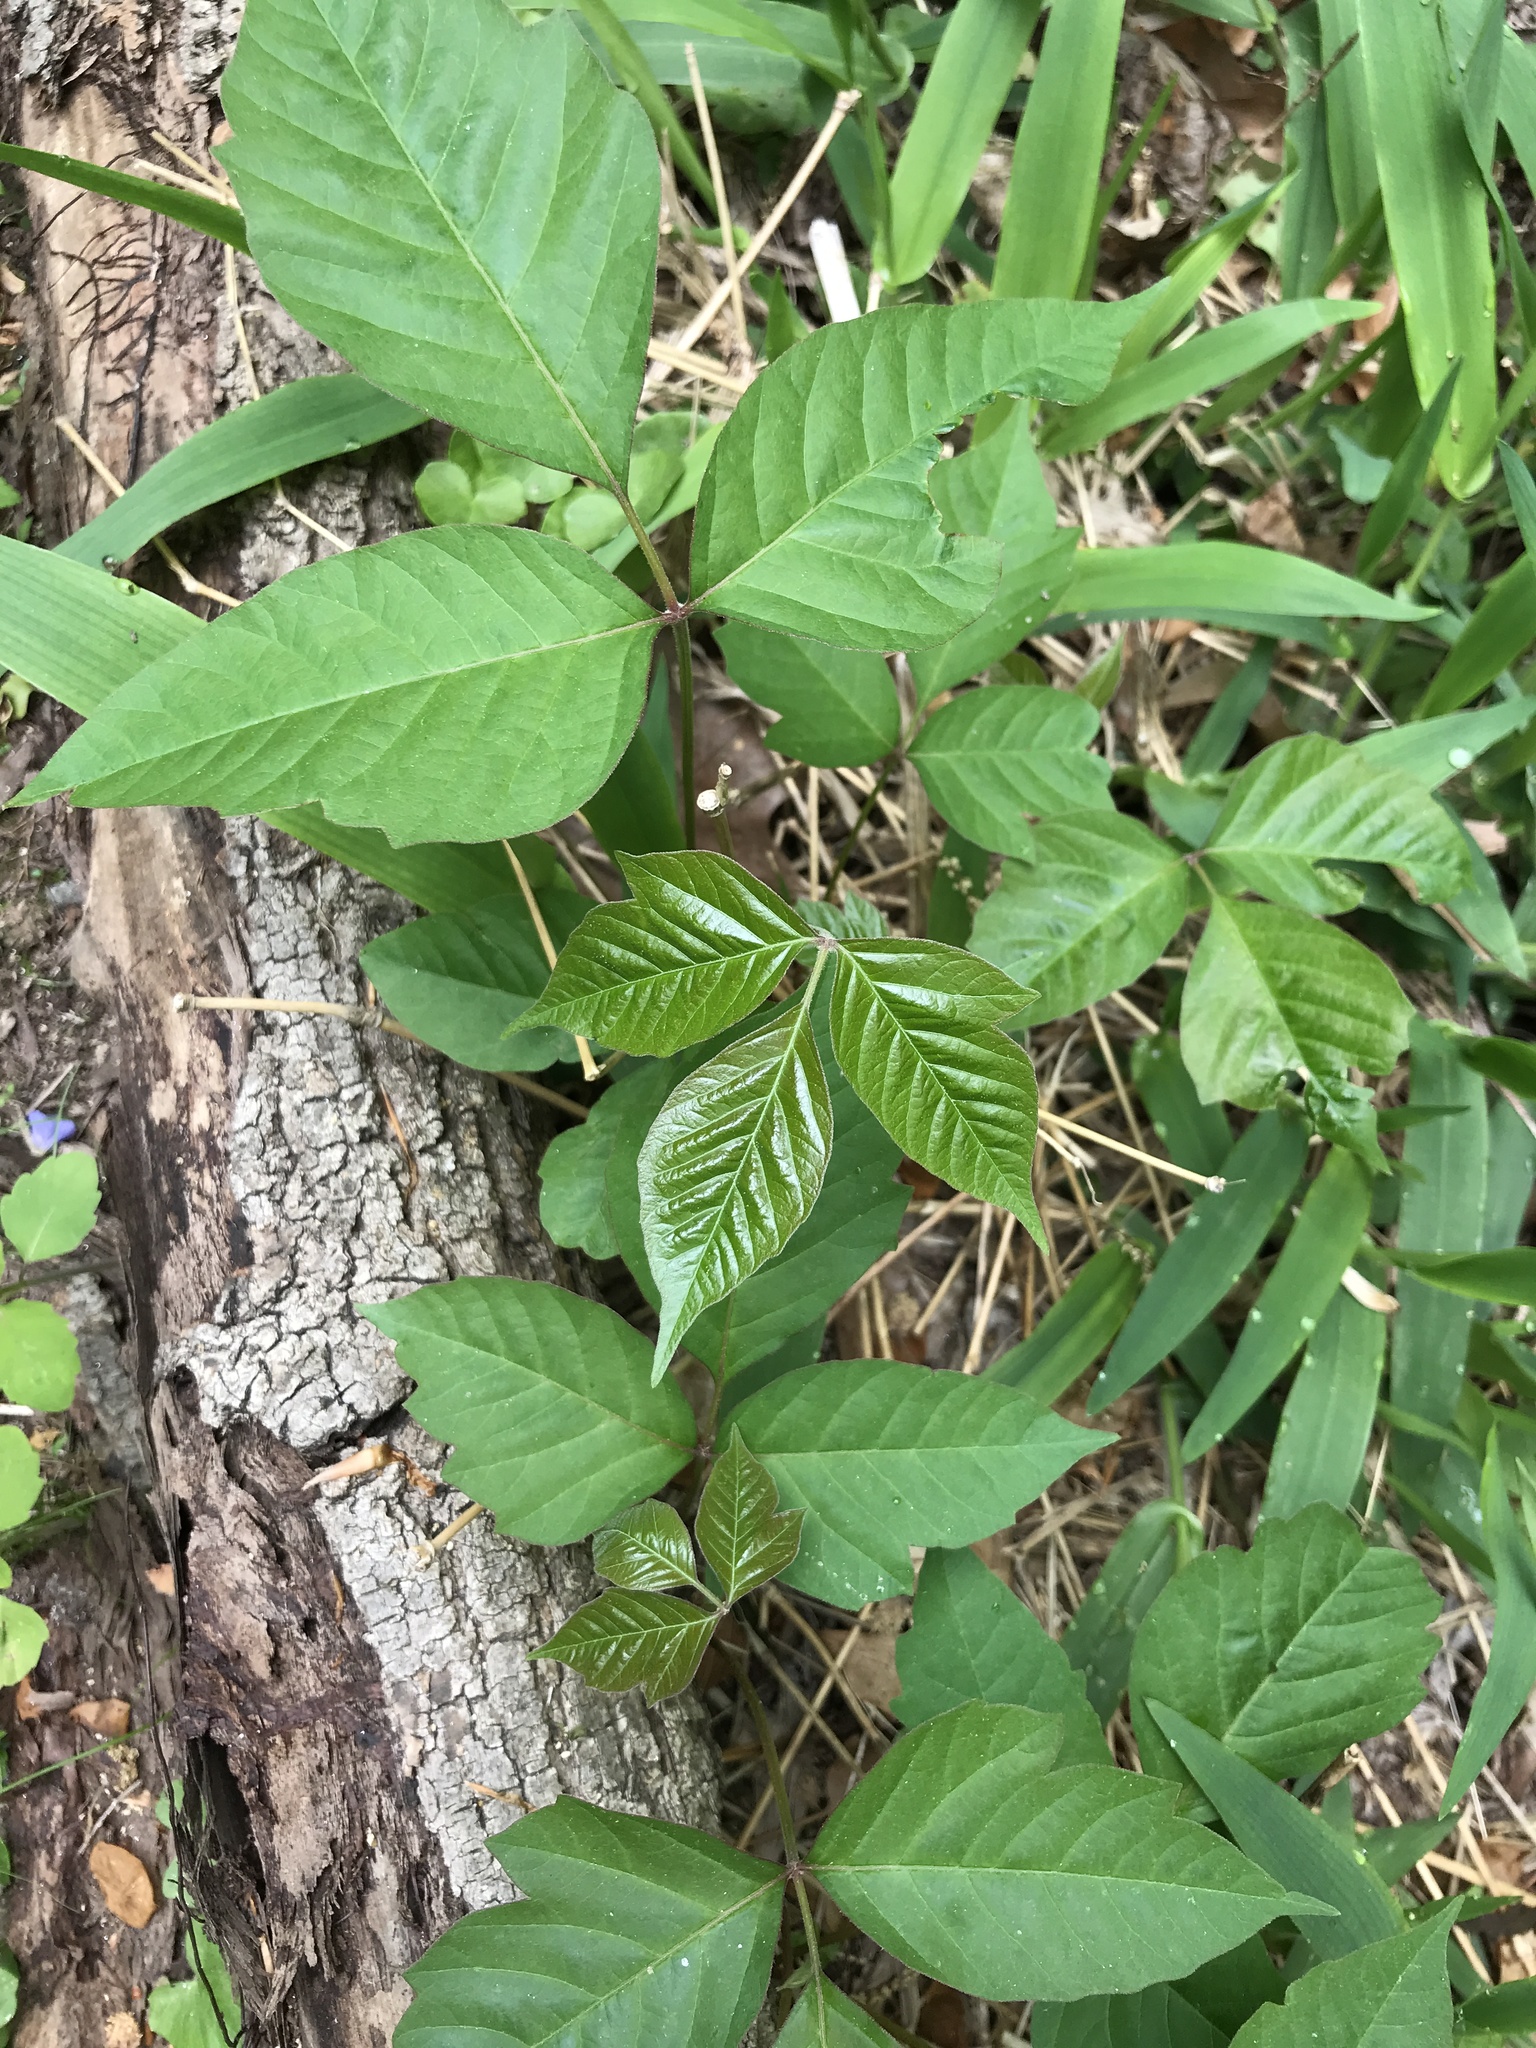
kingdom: Plantae
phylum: Tracheophyta
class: Magnoliopsida
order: Sapindales
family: Anacardiaceae
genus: Toxicodendron
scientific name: Toxicodendron radicans
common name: Poison ivy
